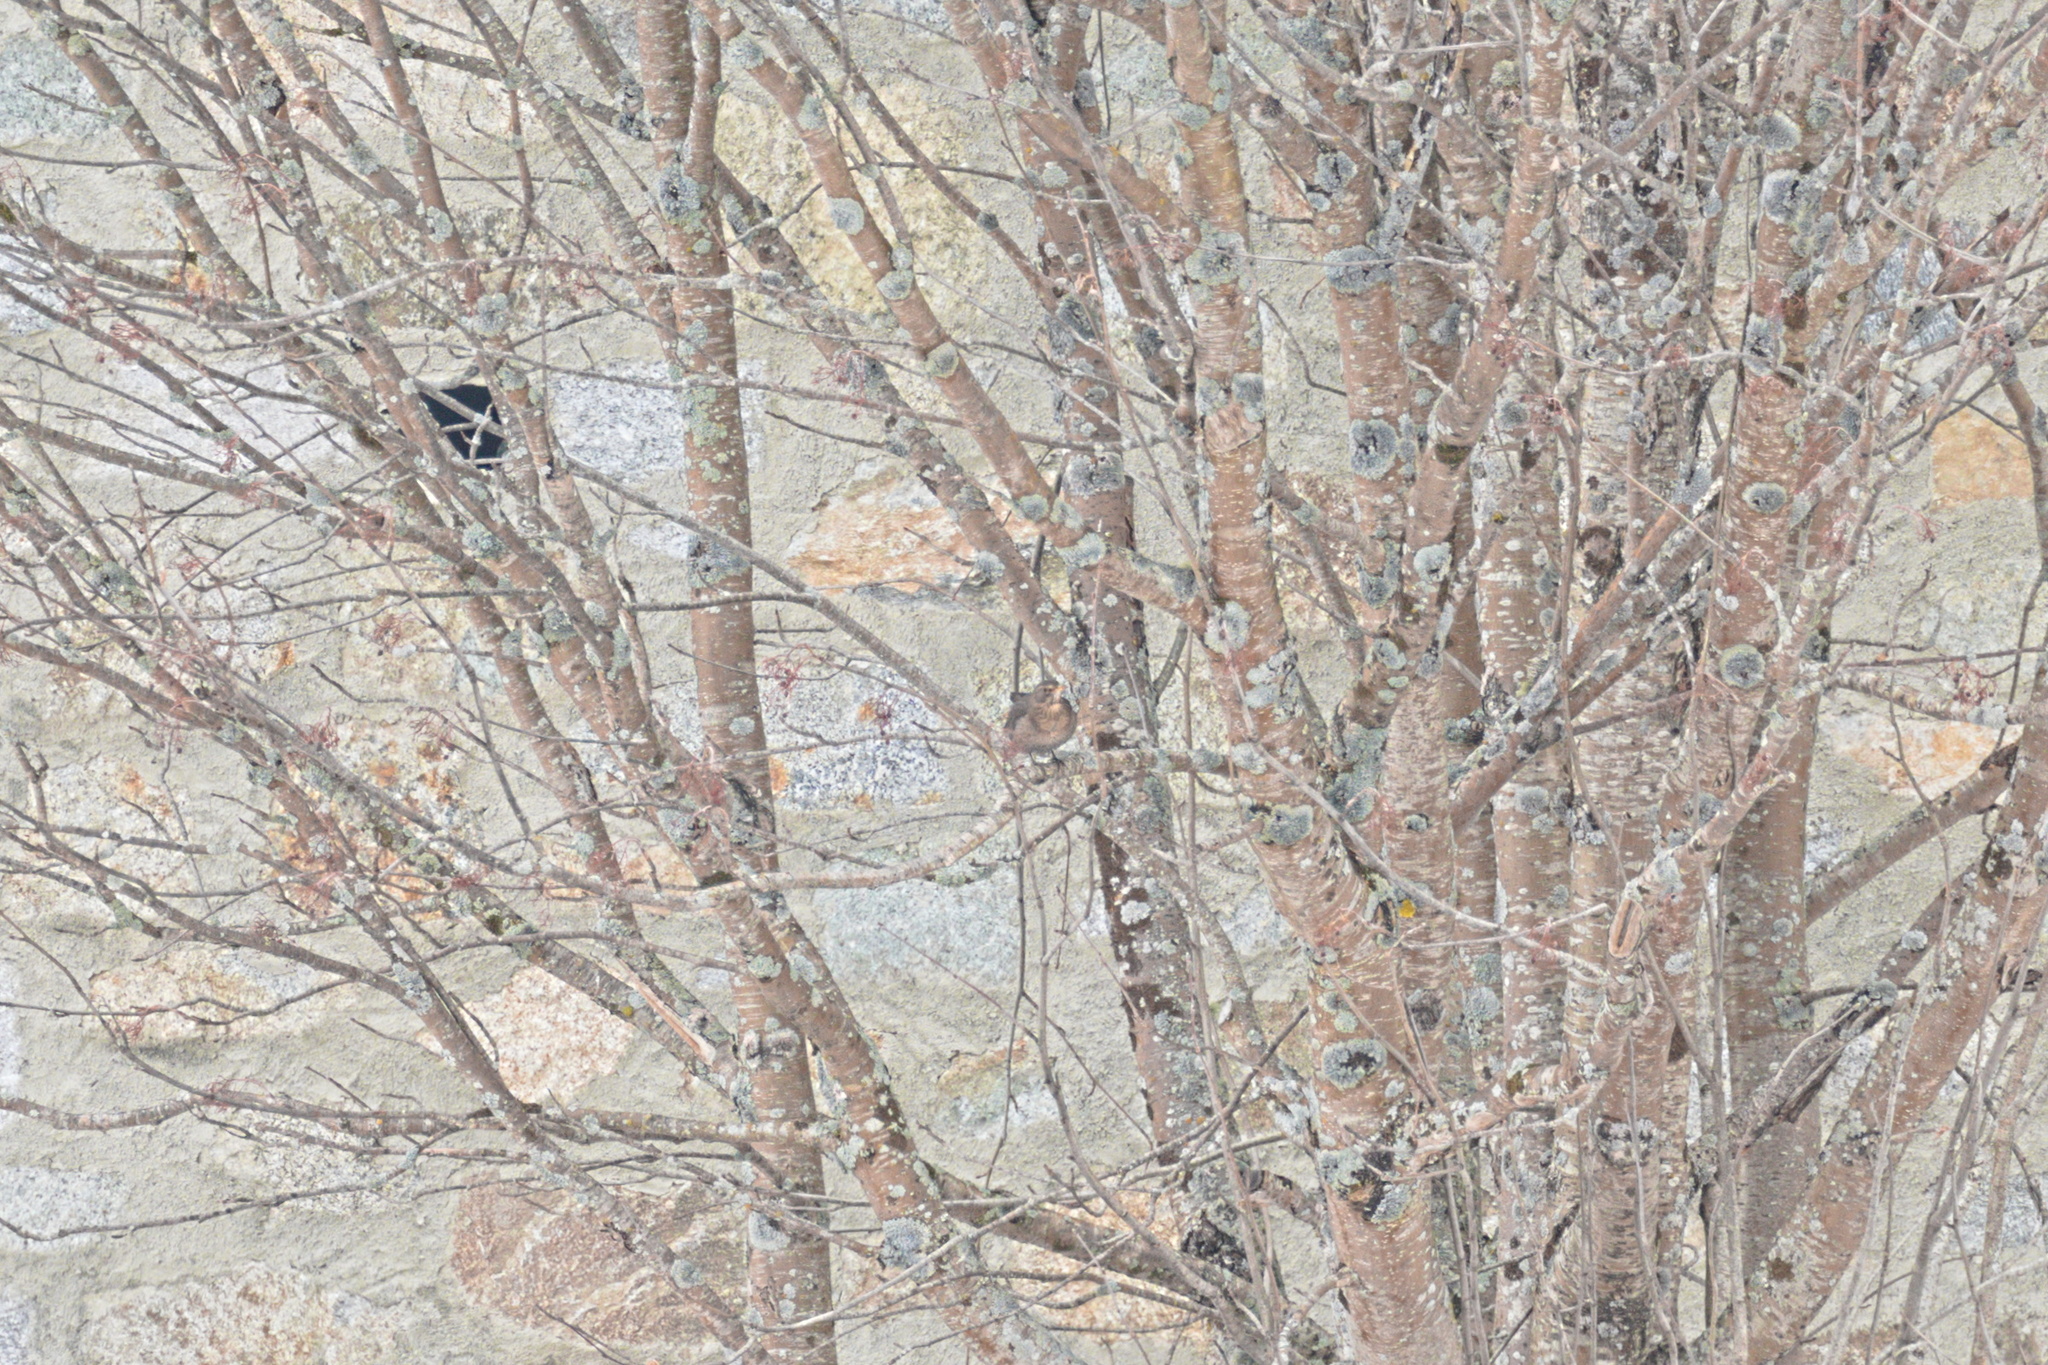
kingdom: Animalia
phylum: Chordata
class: Aves
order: Passeriformes
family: Turdidae
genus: Turdus
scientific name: Turdus merula
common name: Common blackbird
